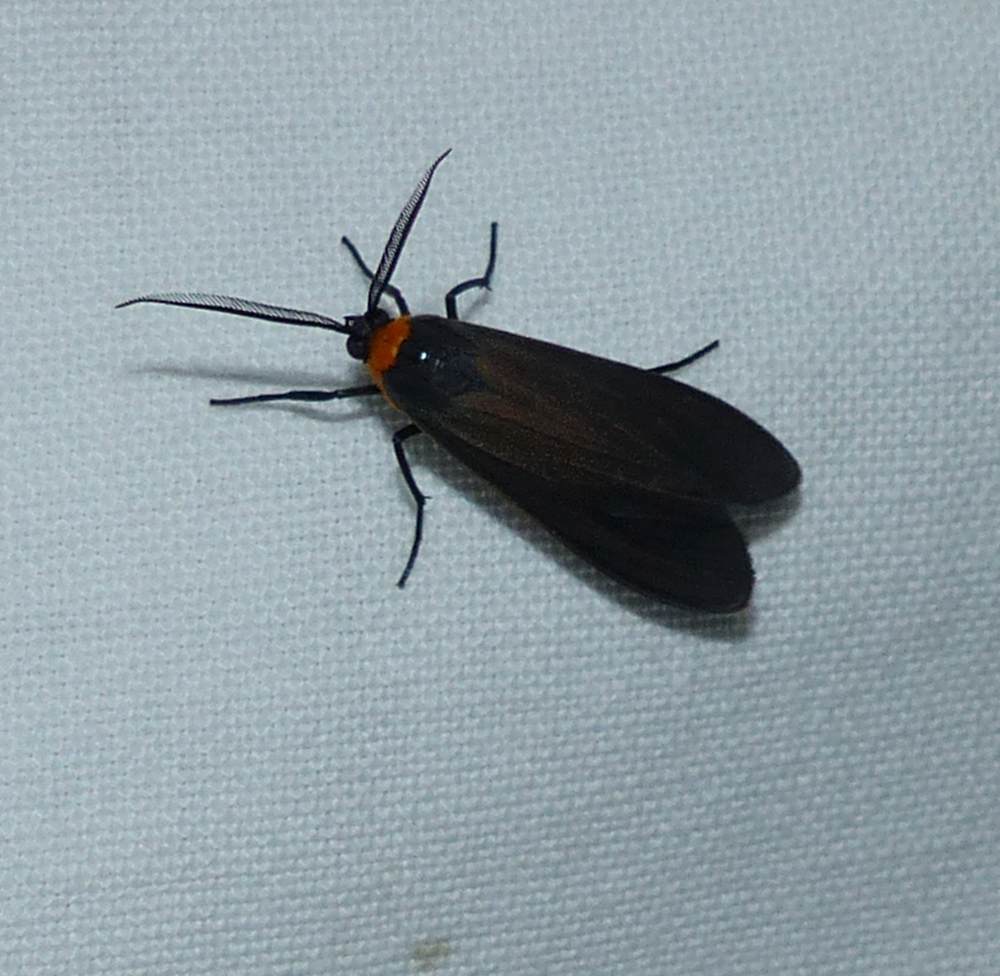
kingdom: Animalia
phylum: Arthropoda
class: Insecta
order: Lepidoptera
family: Erebidae
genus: Cisseps
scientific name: Cisseps fulvicollis
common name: Yellow-collared scape moth
